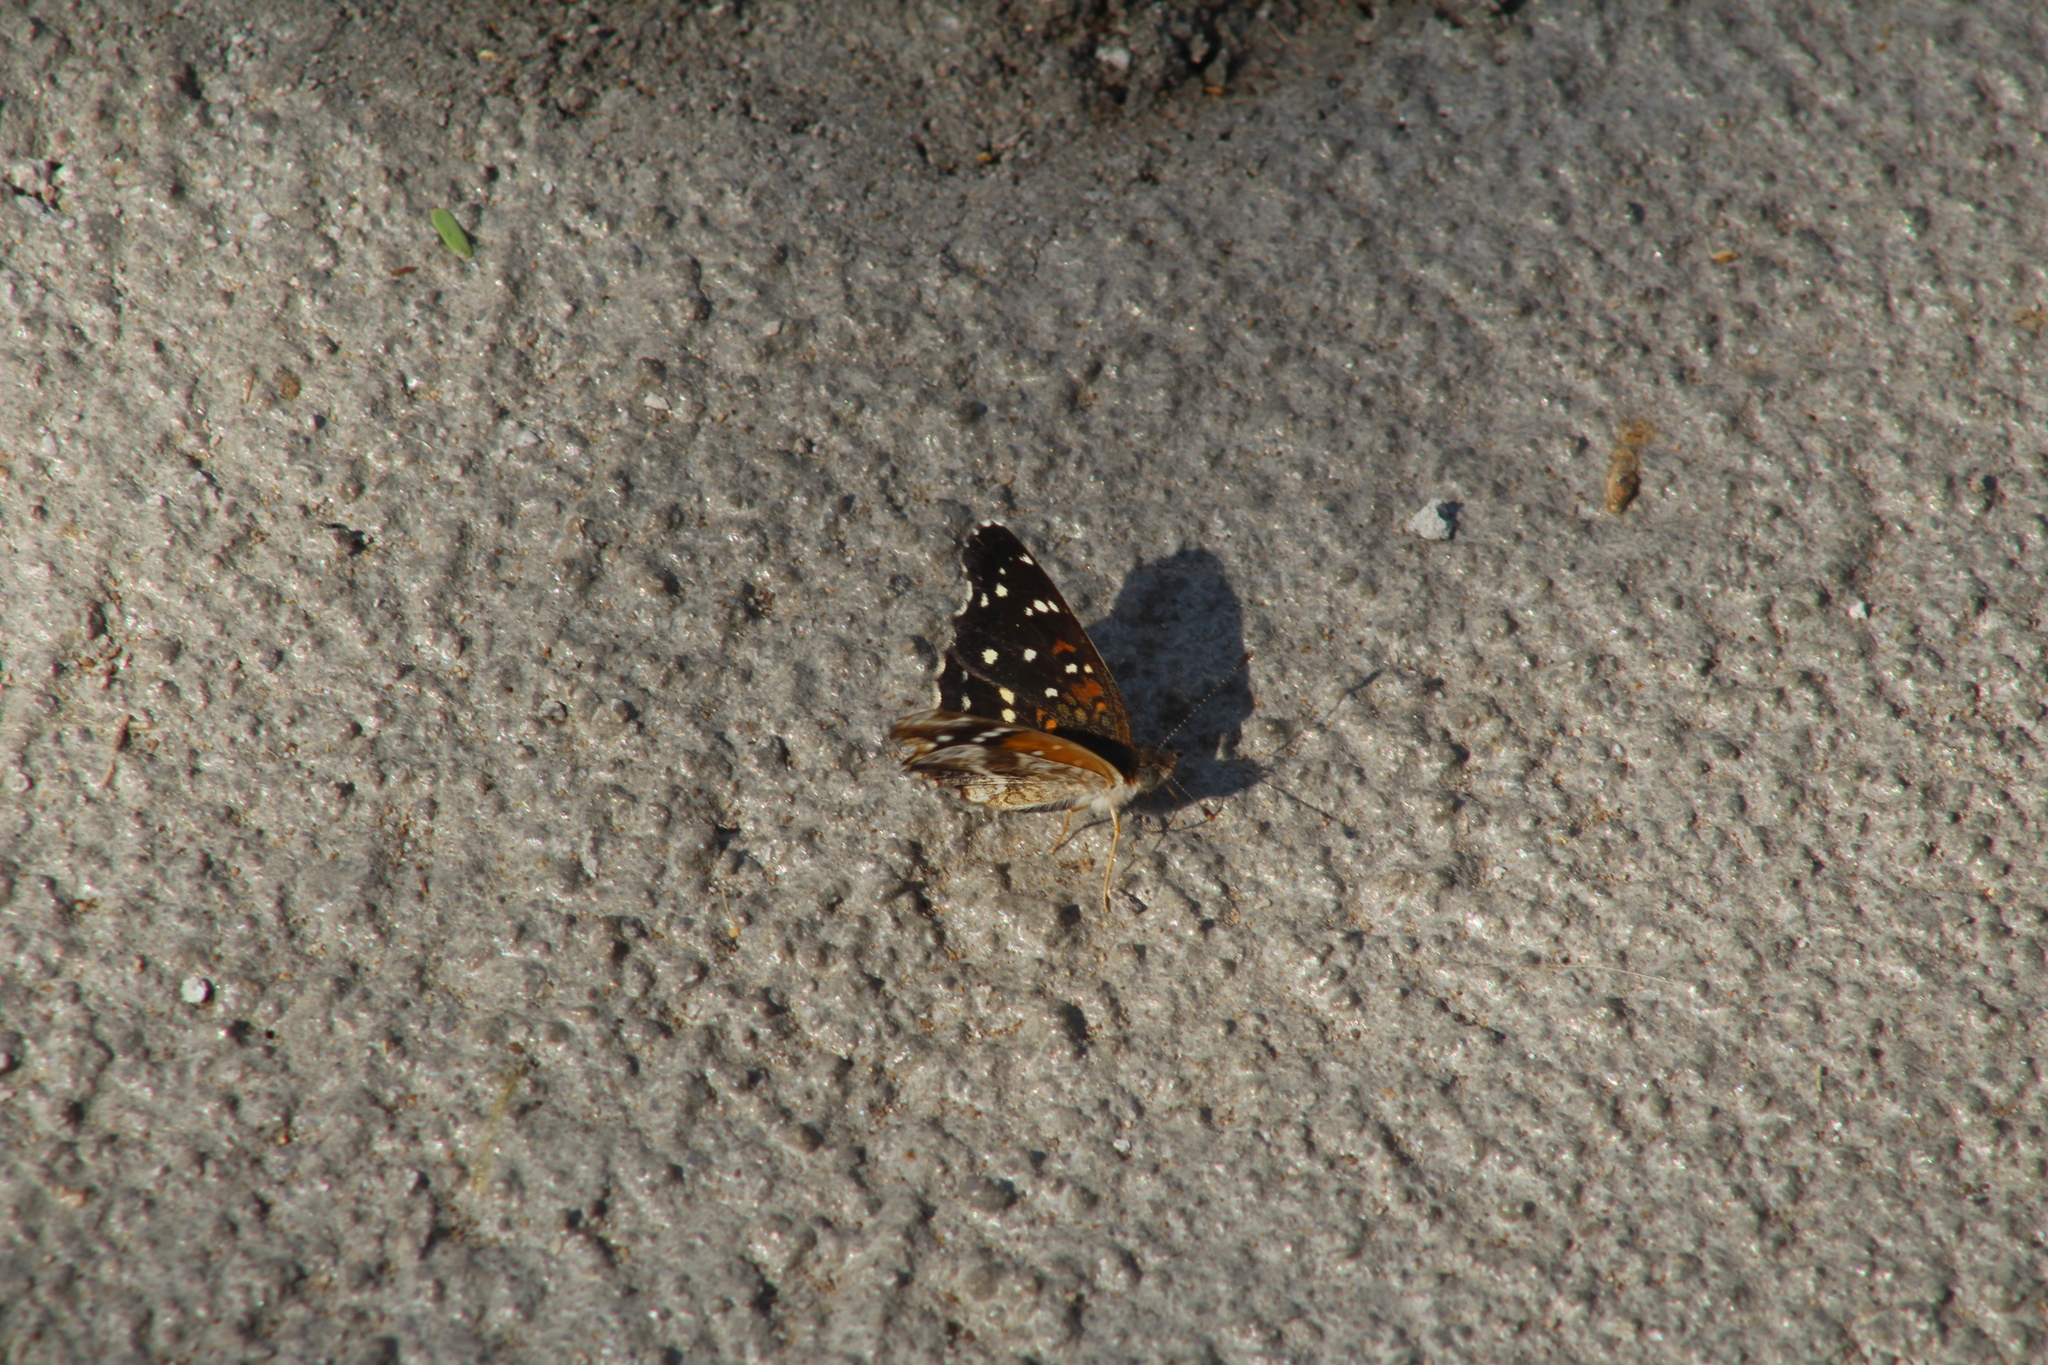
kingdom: Animalia
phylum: Arthropoda
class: Insecta
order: Lepidoptera
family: Nymphalidae
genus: Anthanassa
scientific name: Anthanassa texana
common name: Texan crescent
